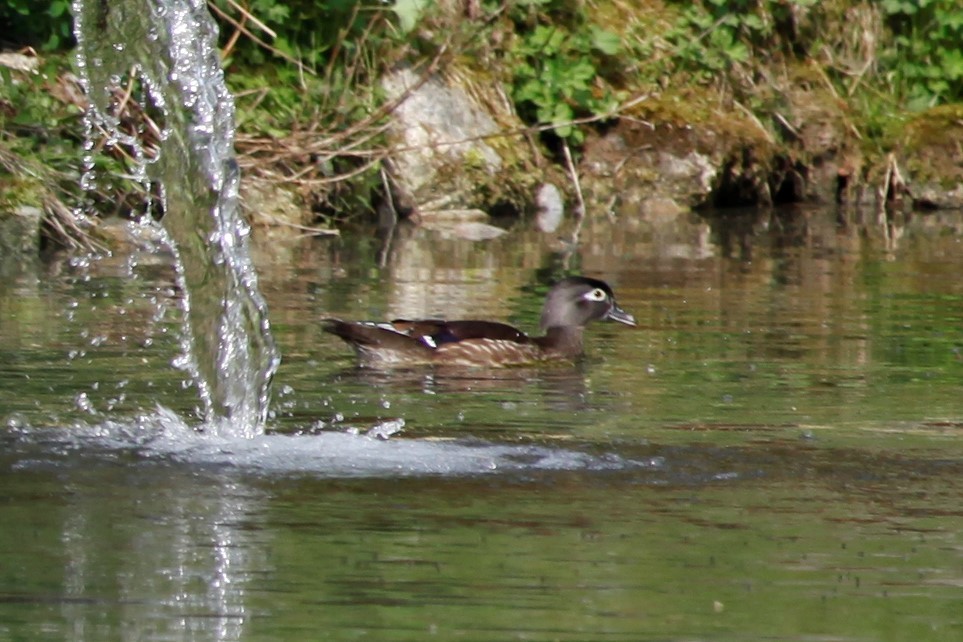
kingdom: Animalia
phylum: Chordata
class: Aves
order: Anseriformes
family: Anatidae
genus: Aix
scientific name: Aix sponsa
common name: Wood duck
